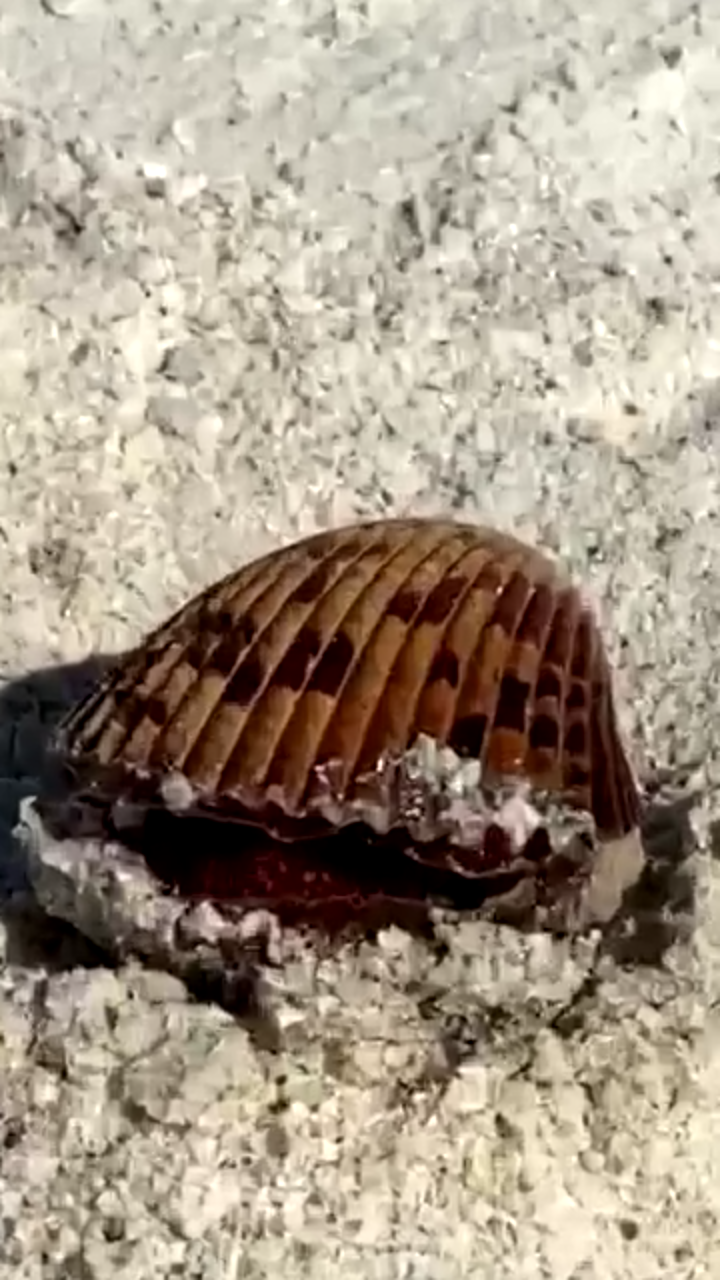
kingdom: Animalia
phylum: Mollusca
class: Bivalvia
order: Cardiida
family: Cardiidae
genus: Dinocardium
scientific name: Dinocardium robustum
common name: Atlantic giant cockle
